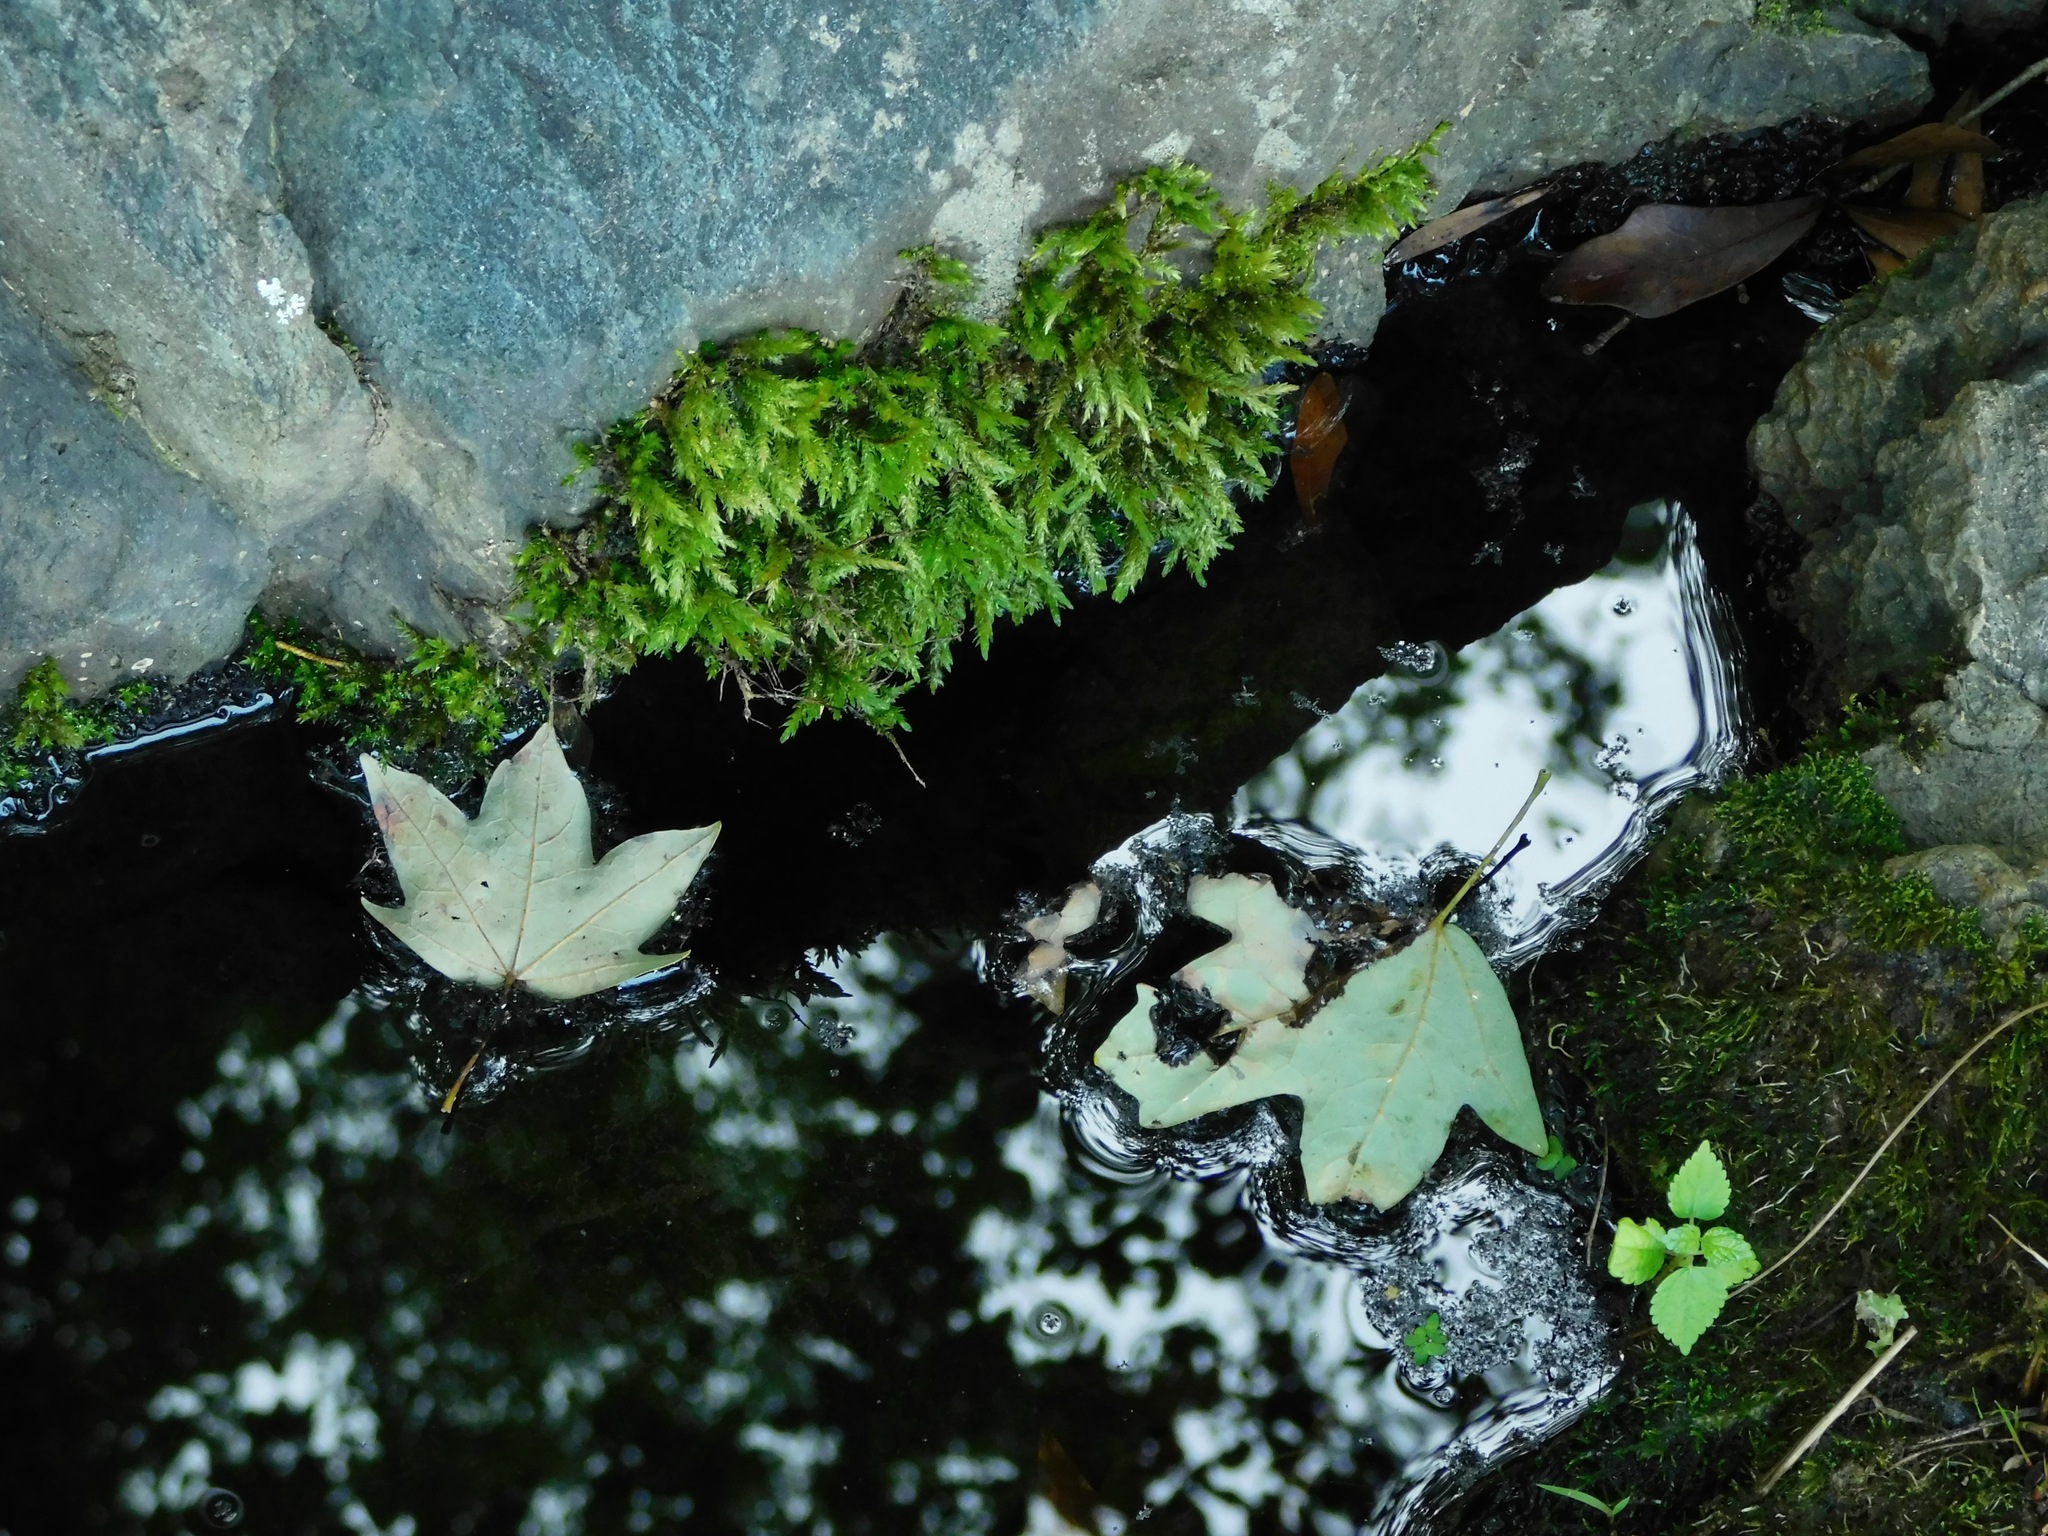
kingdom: Plantae
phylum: Bryophyta
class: Bryopsida
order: Hypnales
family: Brachytheciaceae
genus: Brachythecium
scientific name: Brachythecium rivulare
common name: River ragged moss
